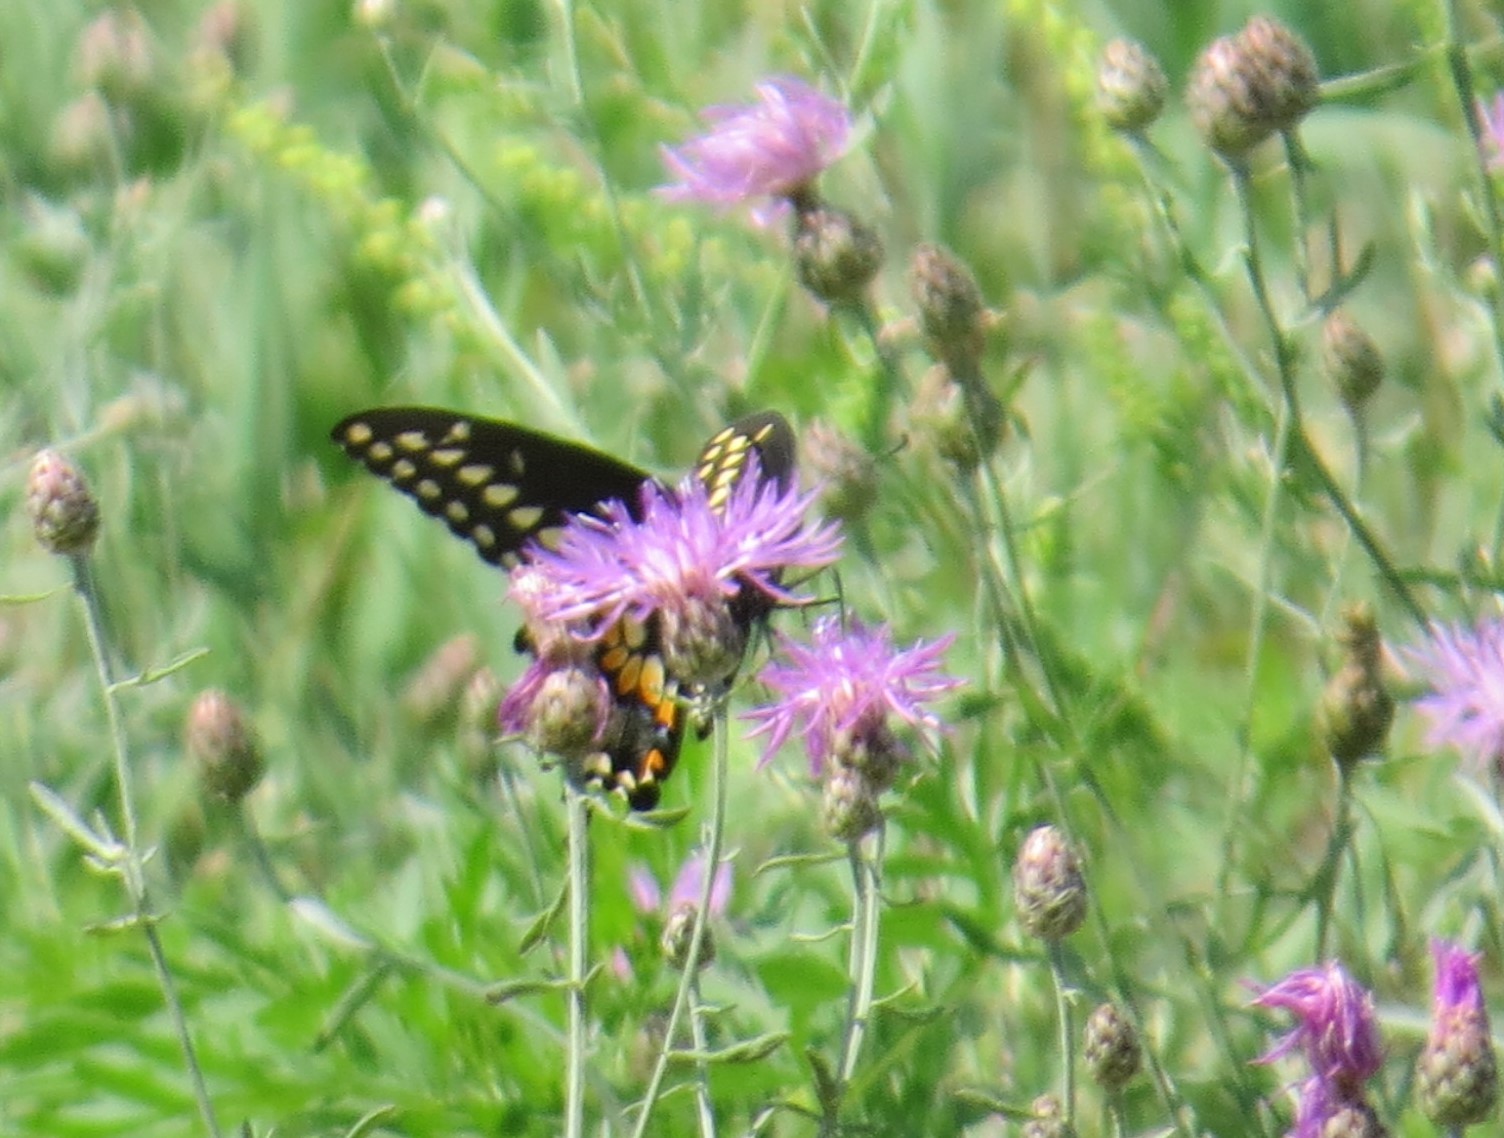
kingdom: Animalia
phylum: Arthropoda
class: Insecta
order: Lepidoptera
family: Papilionidae
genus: Papilio
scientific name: Papilio polyxenes
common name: Black swallowtail
